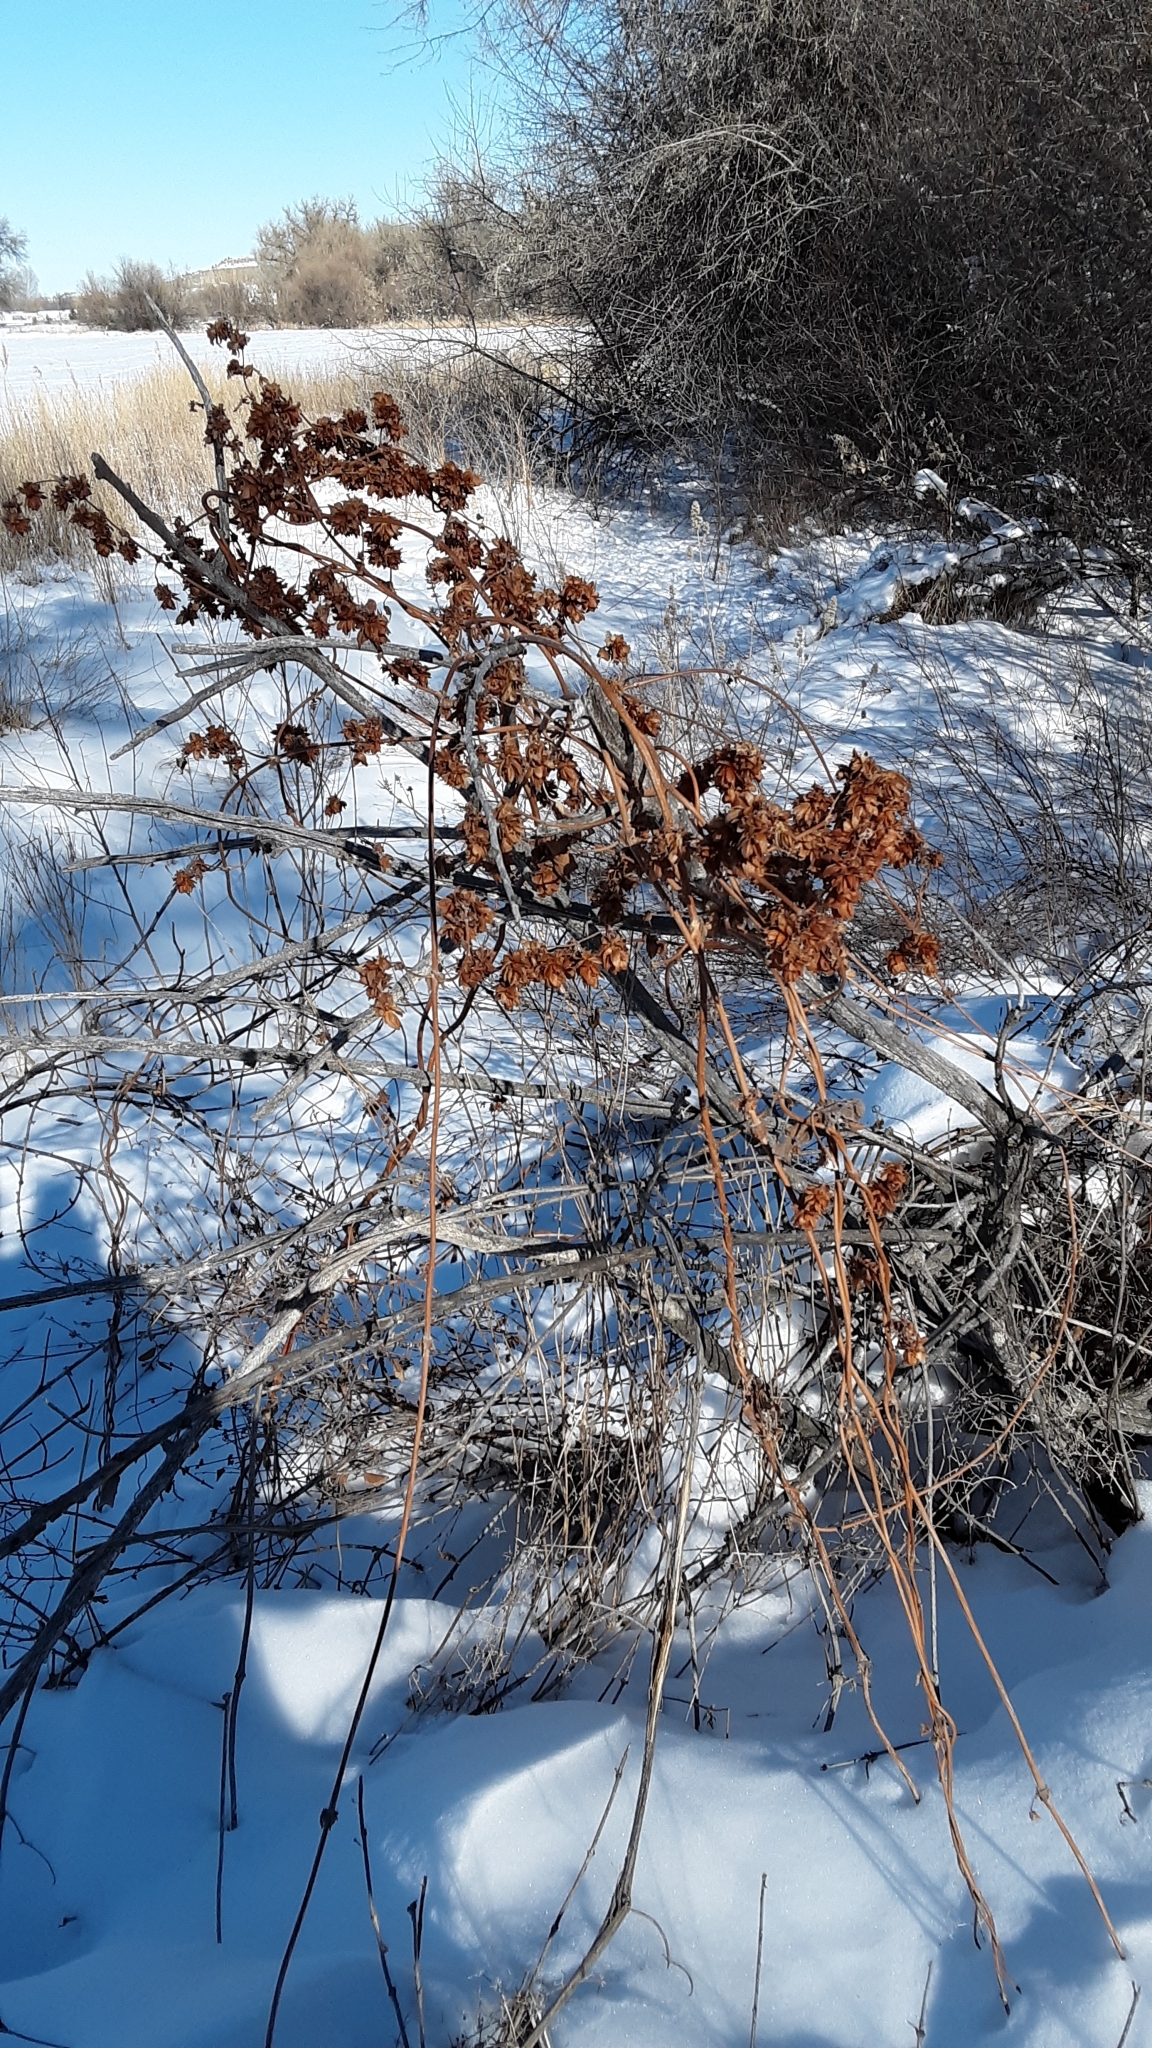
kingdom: Plantae
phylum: Tracheophyta
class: Magnoliopsida
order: Rosales
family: Cannabaceae
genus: Humulus
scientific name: Humulus lupulus
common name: Hop
